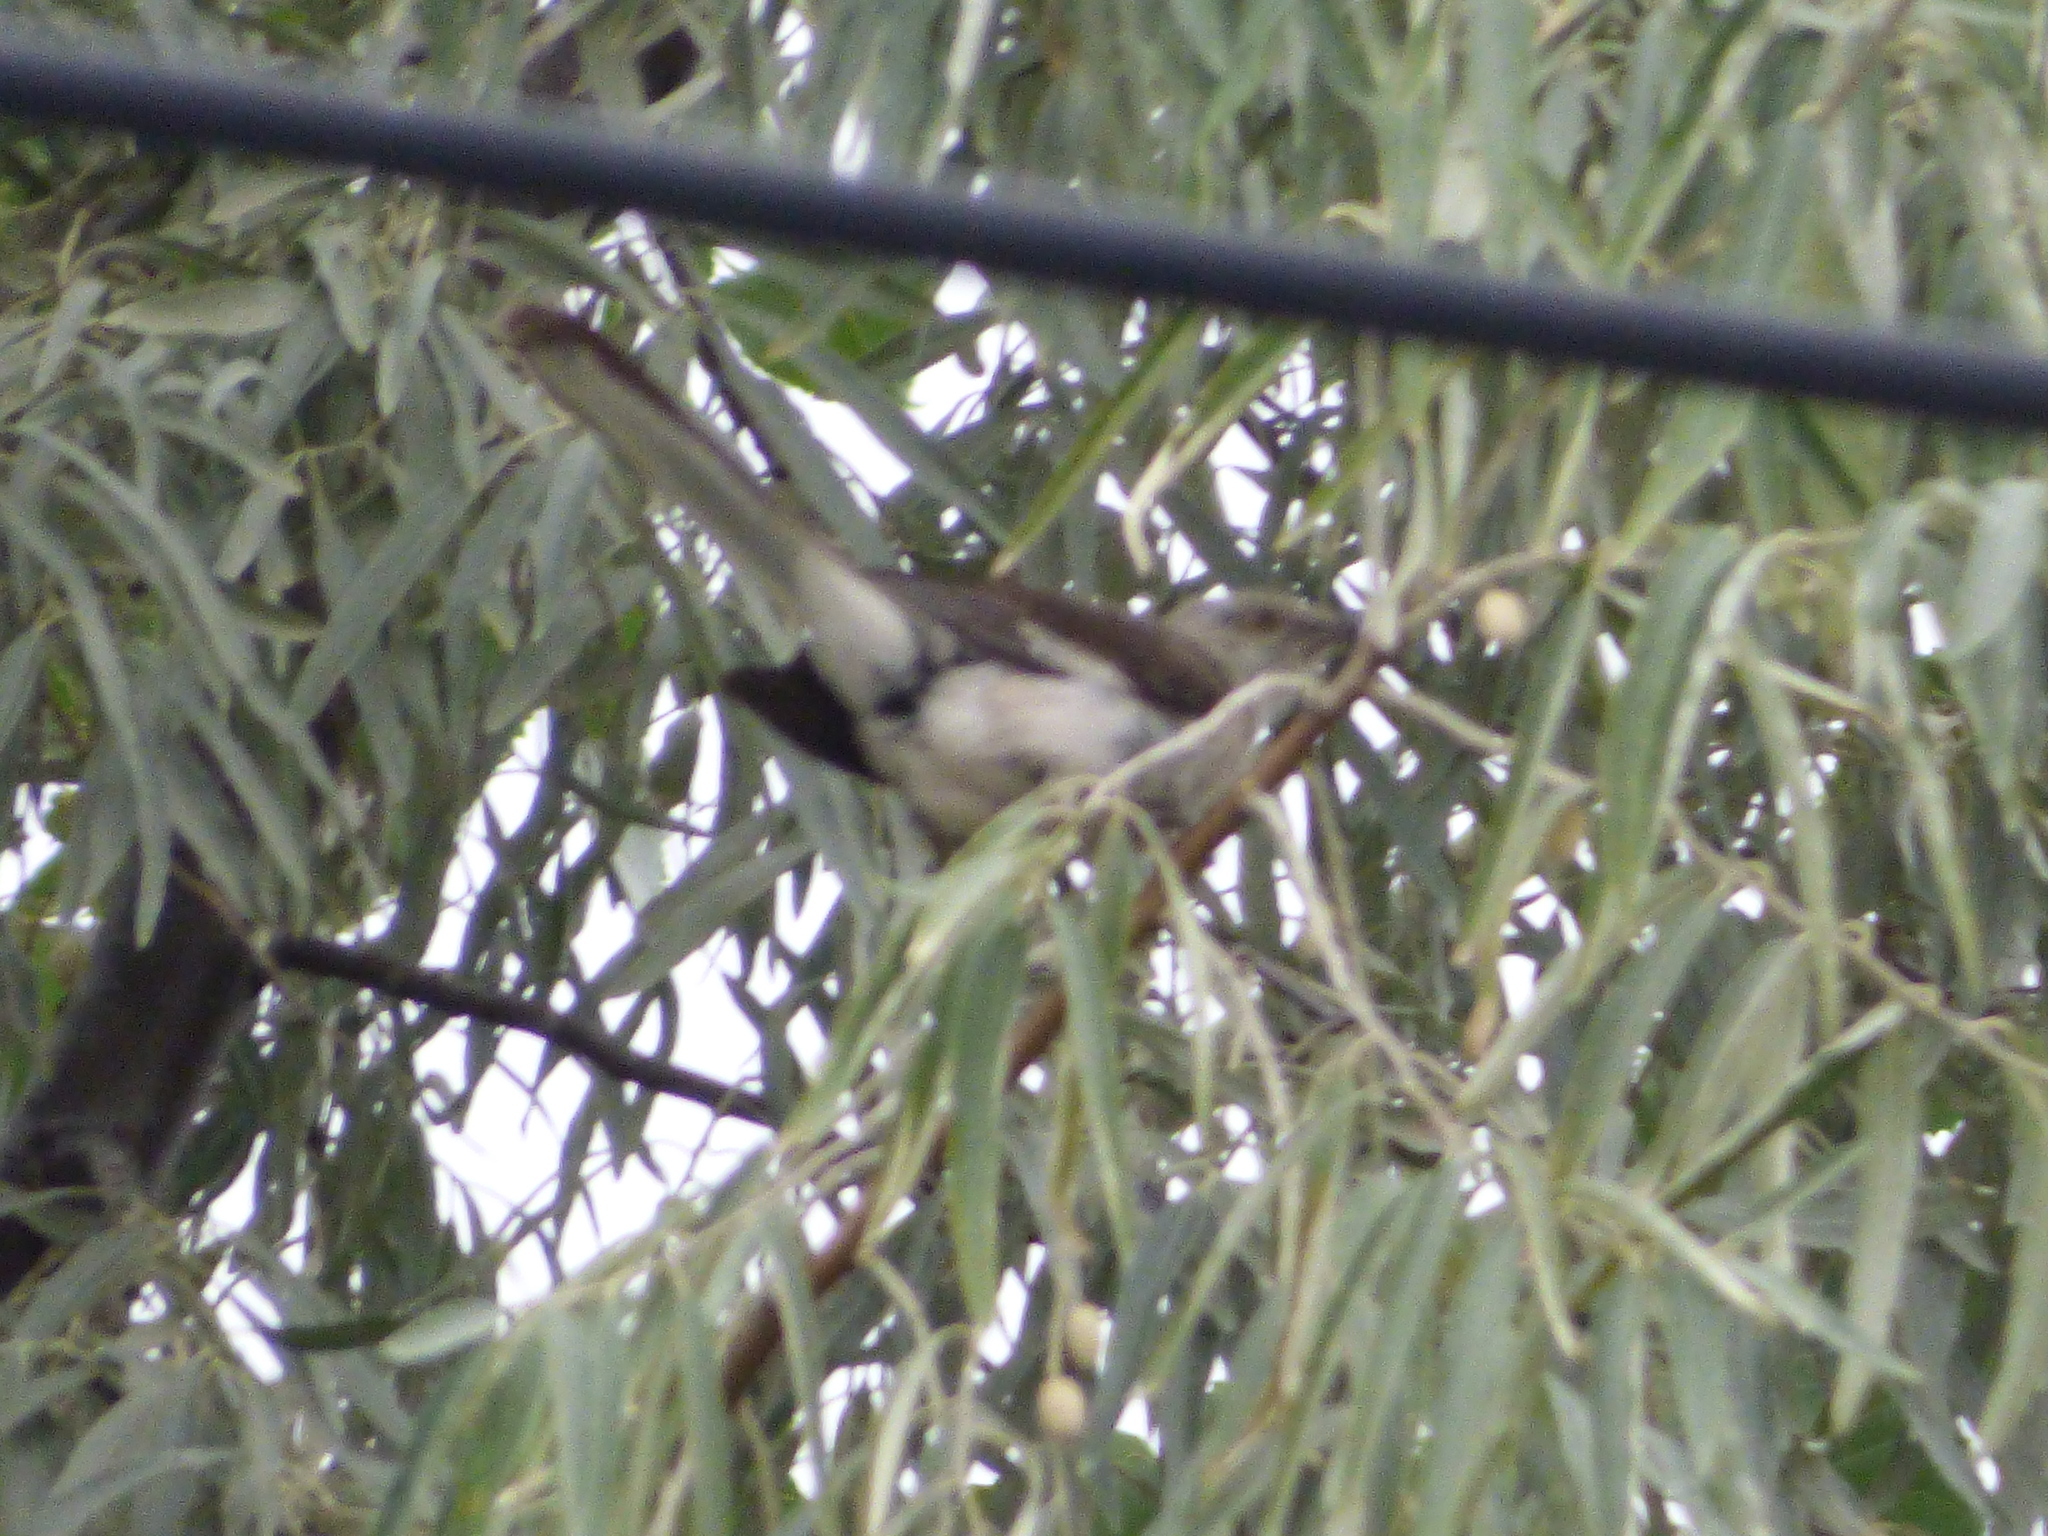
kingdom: Animalia
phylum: Chordata
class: Aves
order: Passeriformes
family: Mimidae
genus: Mimus
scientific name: Mimus polyglottos
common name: Northern mockingbird
